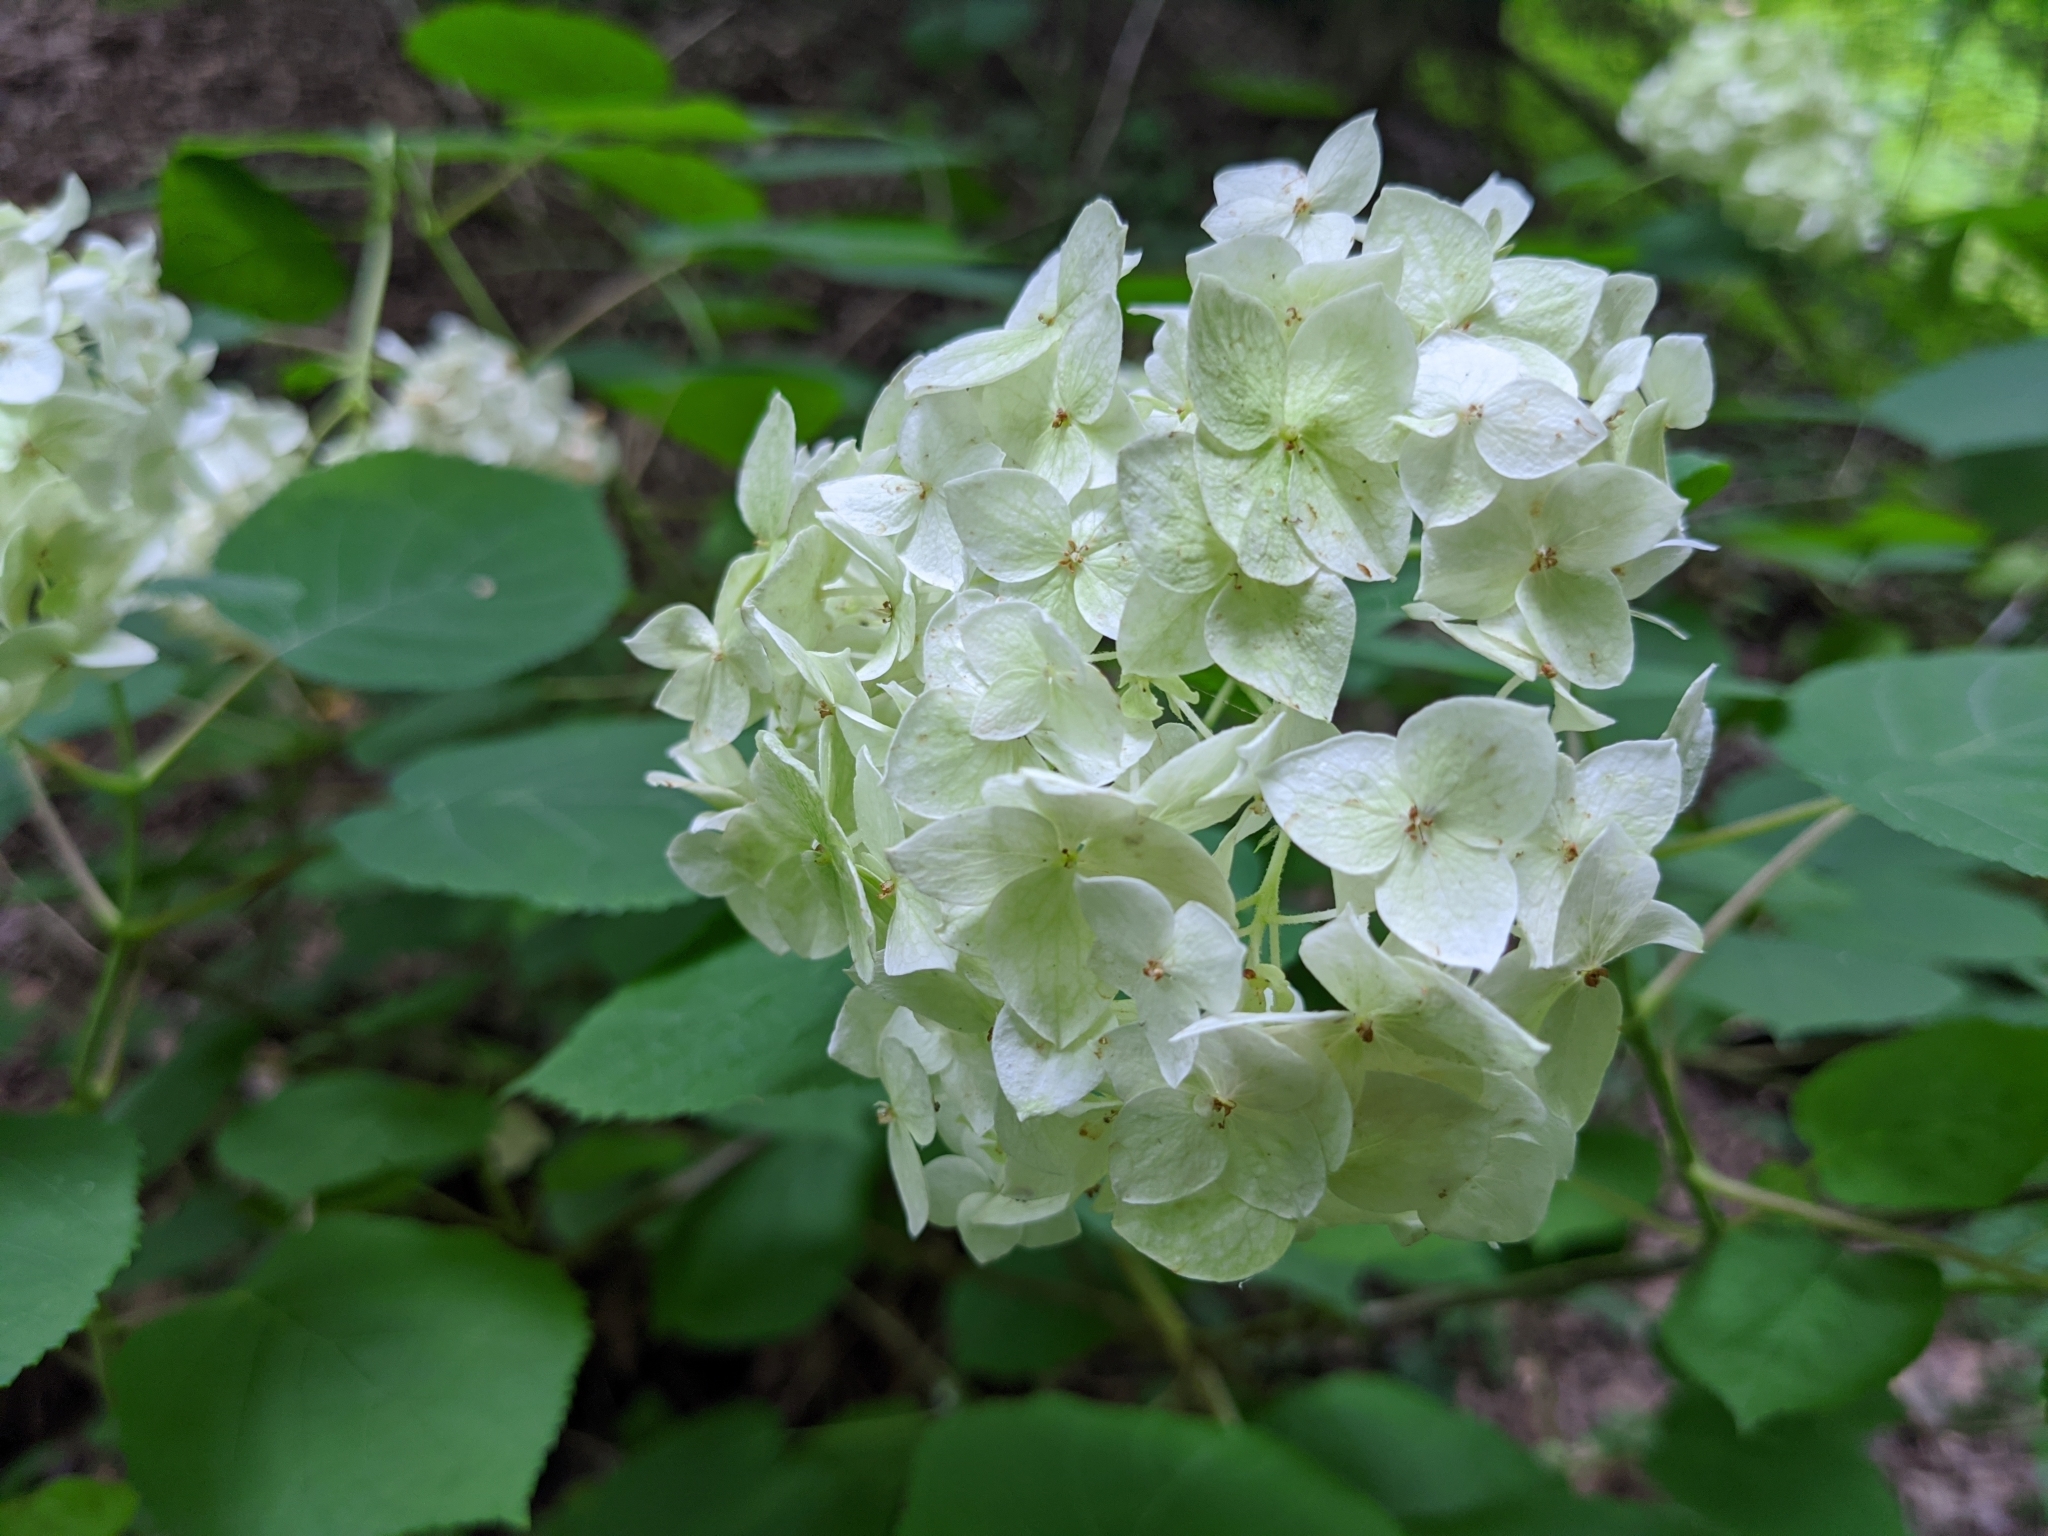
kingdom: Plantae
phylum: Tracheophyta
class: Magnoliopsida
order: Cornales
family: Hydrangeaceae
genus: Hydrangea
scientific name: Hydrangea arborescens
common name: Sevenbark
